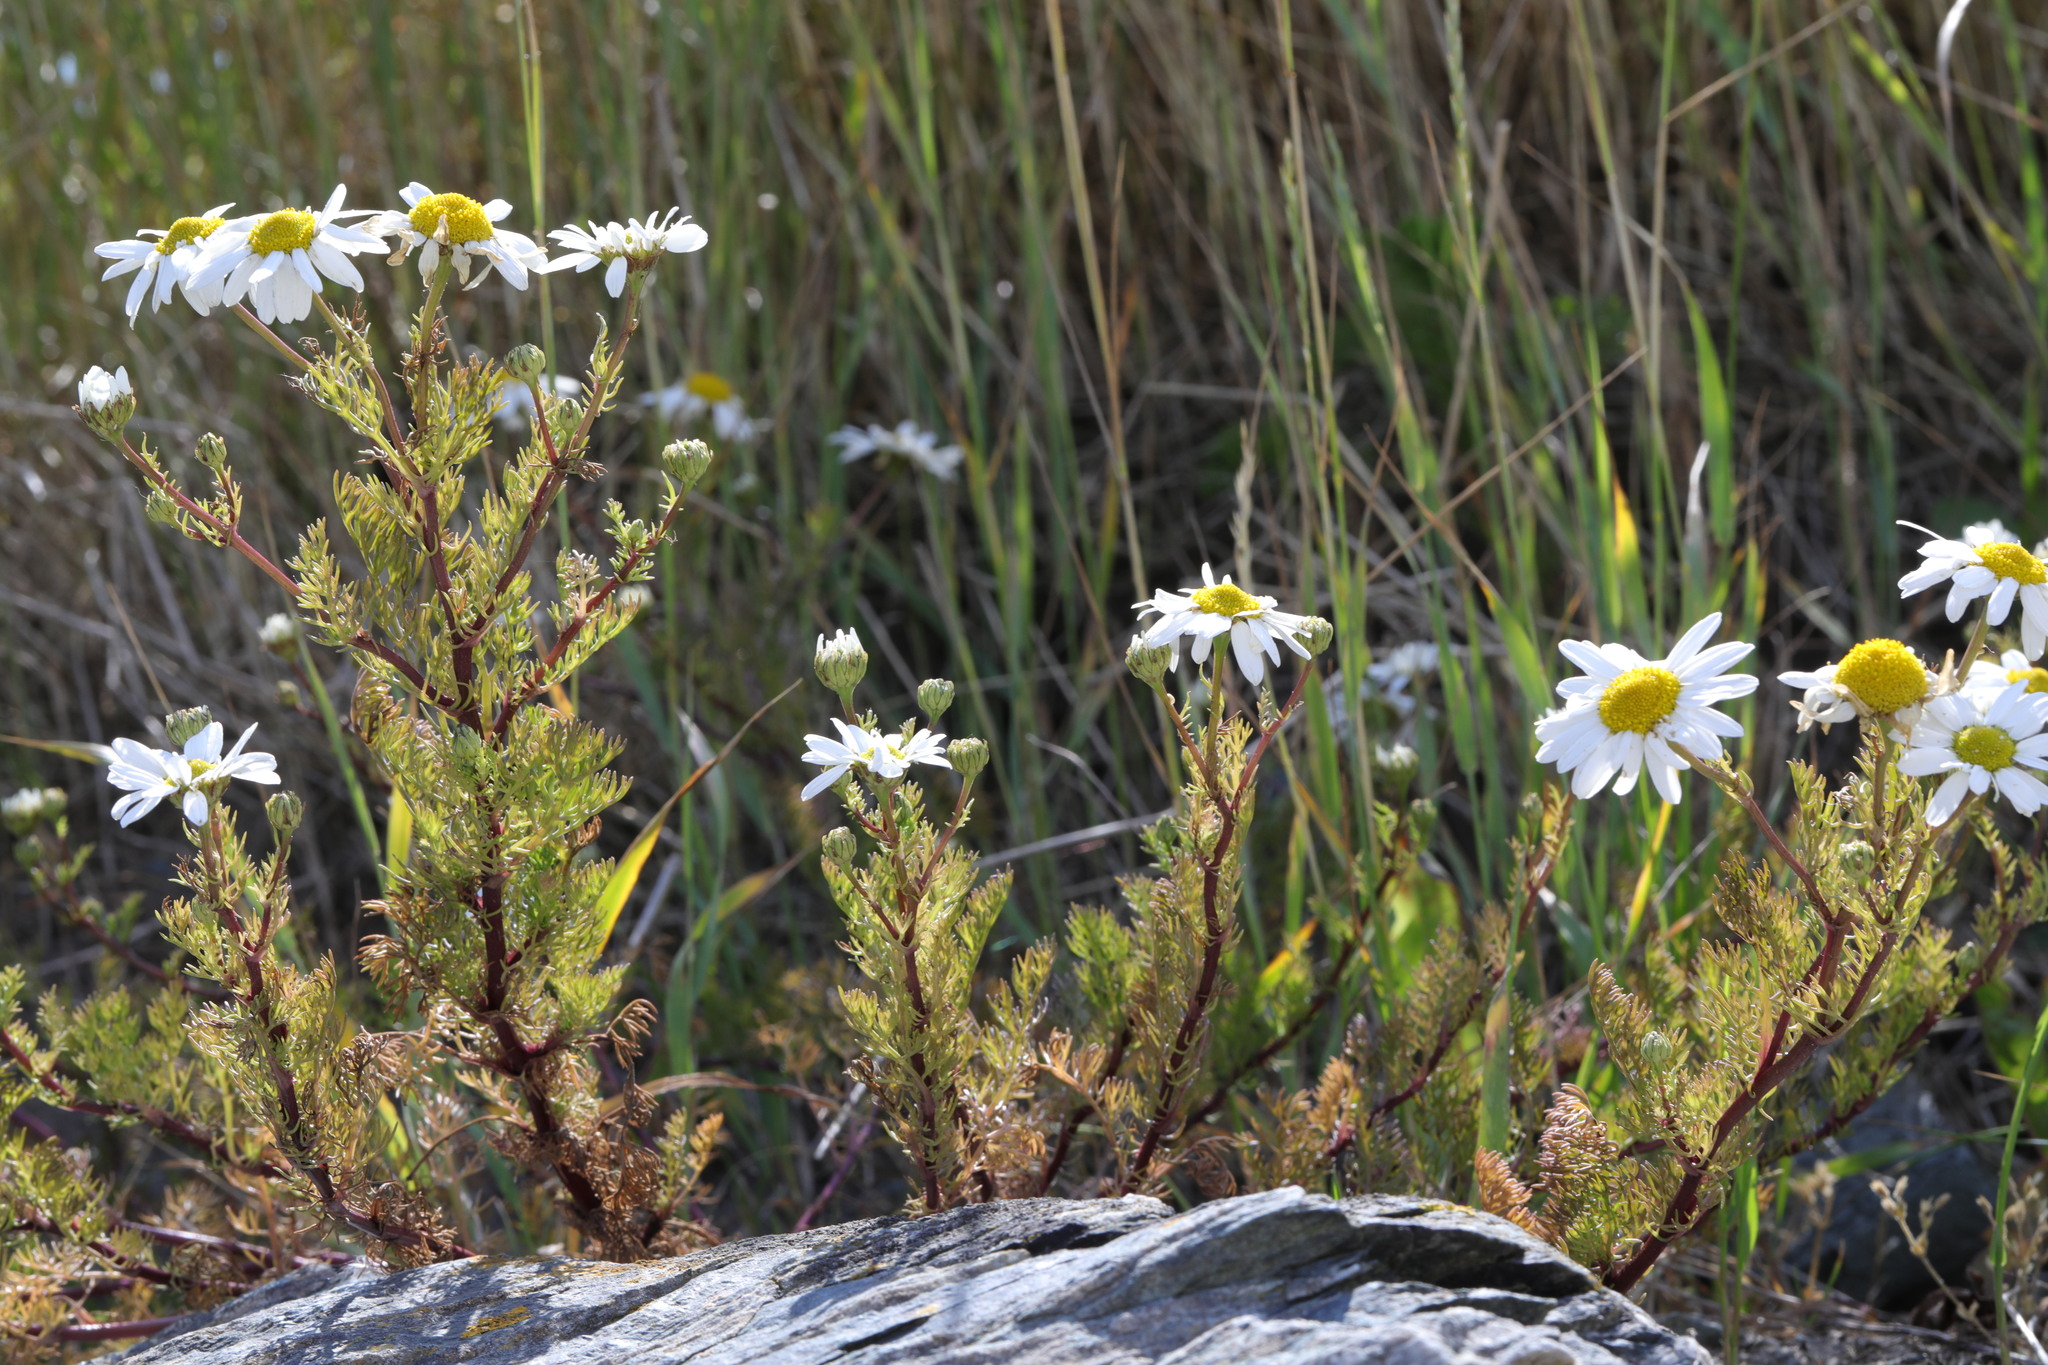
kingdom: Plantae
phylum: Tracheophyta
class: Magnoliopsida
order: Asterales
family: Asteraceae
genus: Tripleurospermum
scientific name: Tripleurospermum maritimum
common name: Sea mayweed
